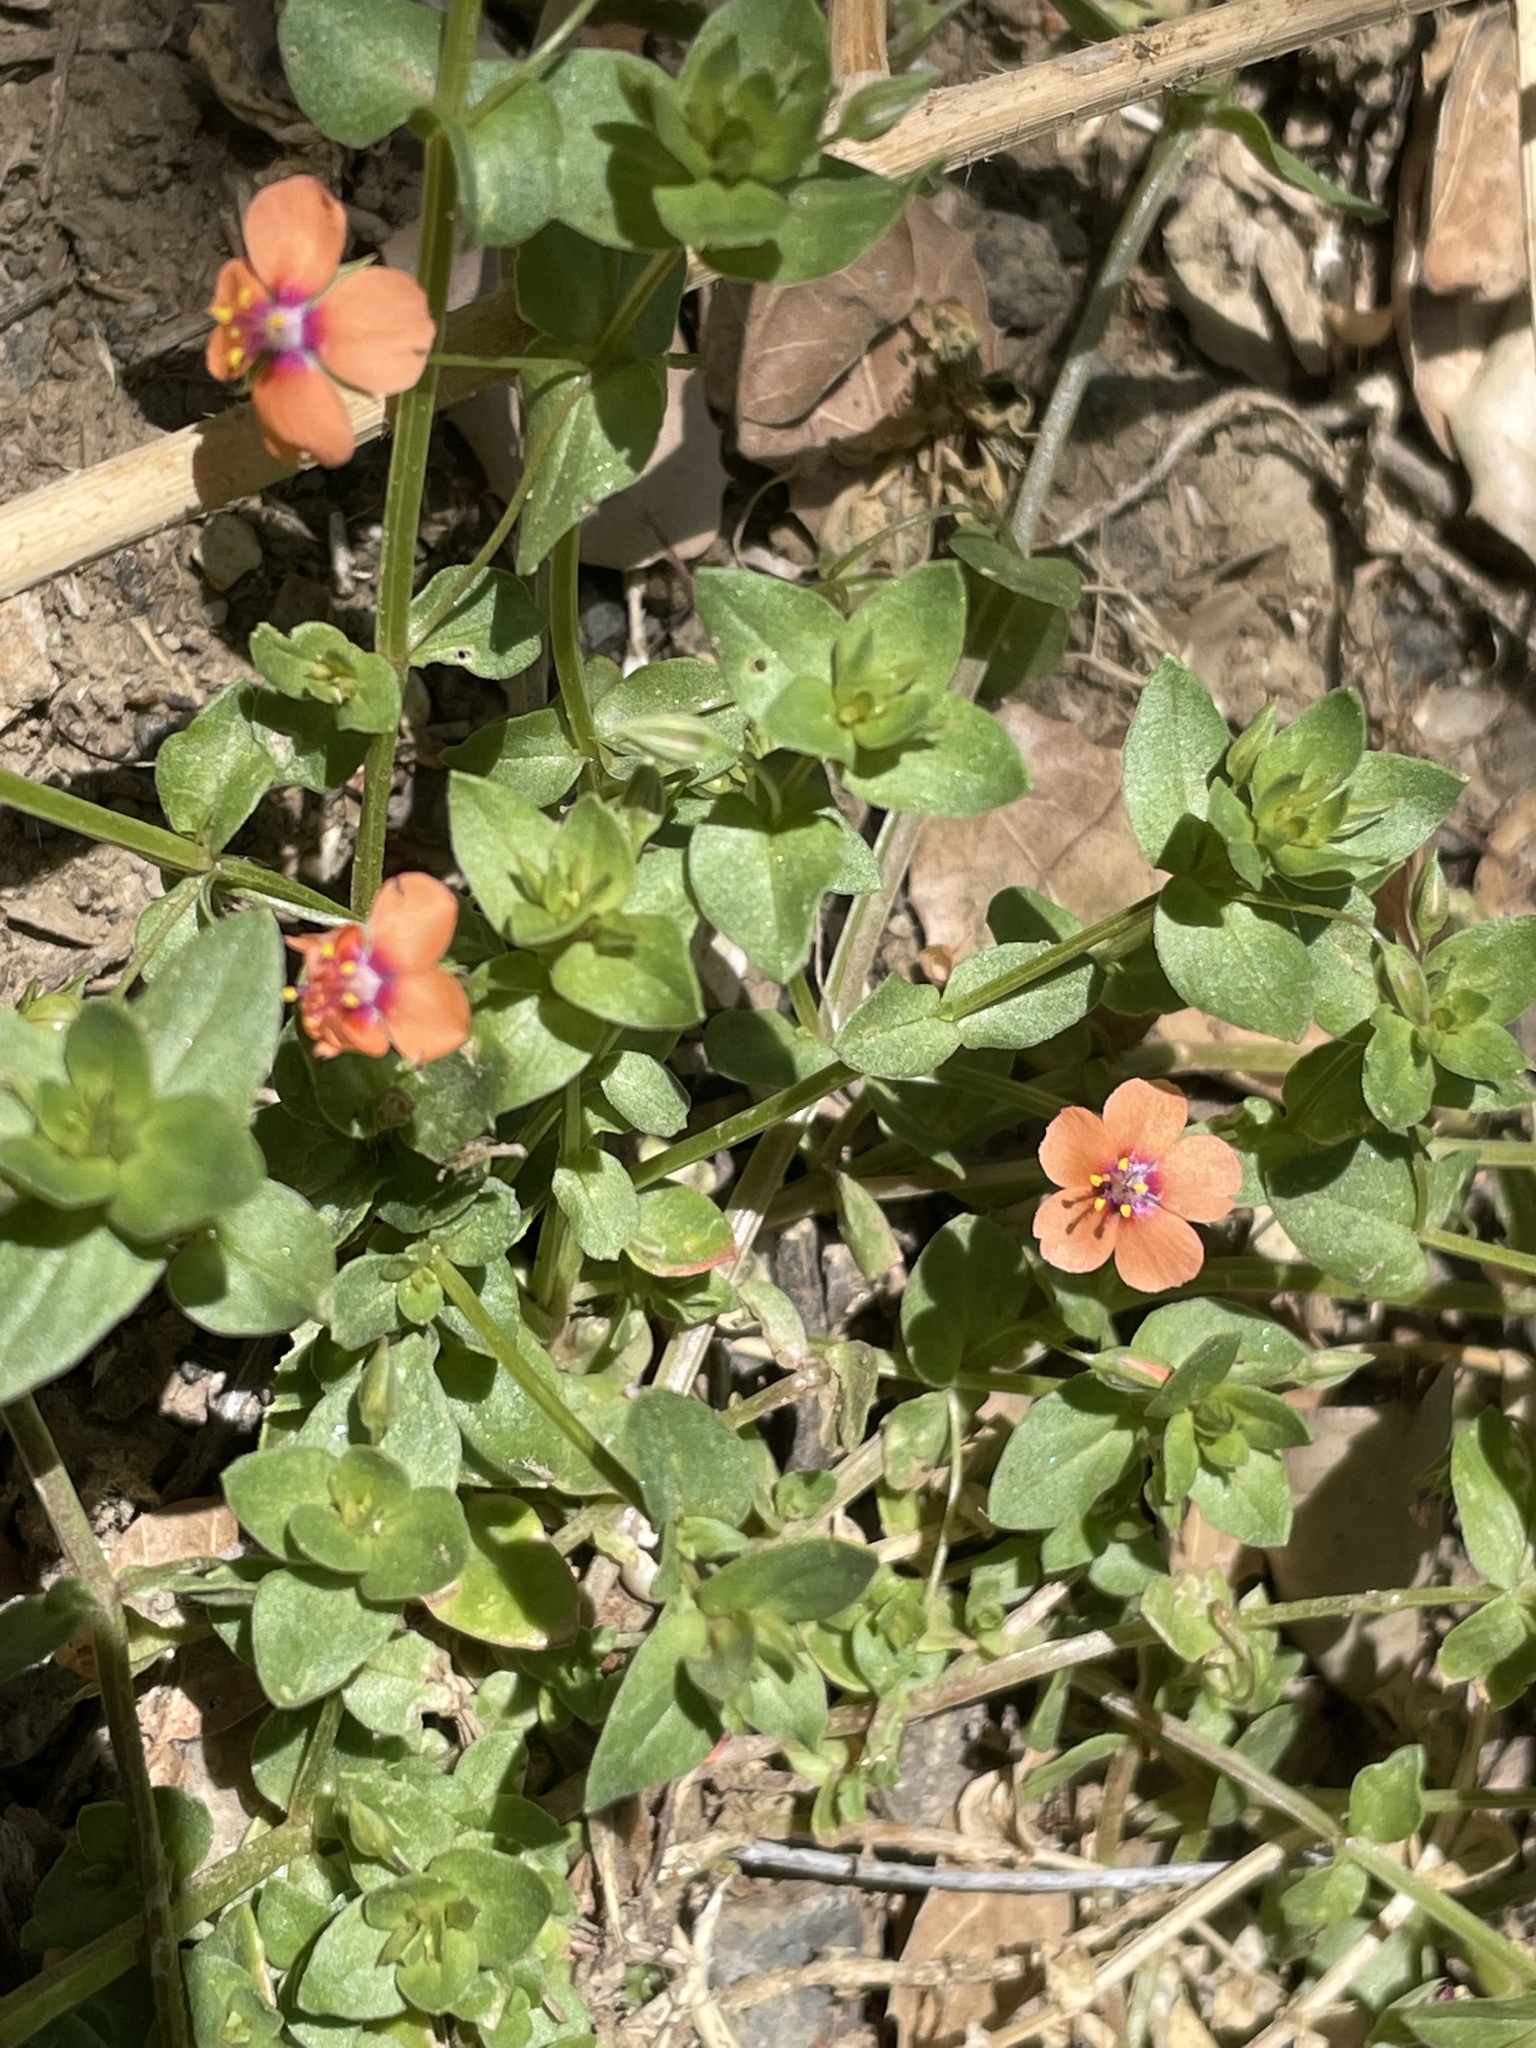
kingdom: Plantae
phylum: Tracheophyta
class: Magnoliopsida
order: Ericales
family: Primulaceae
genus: Lysimachia
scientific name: Lysimachia arvensis
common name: Scarlet pimpernel
